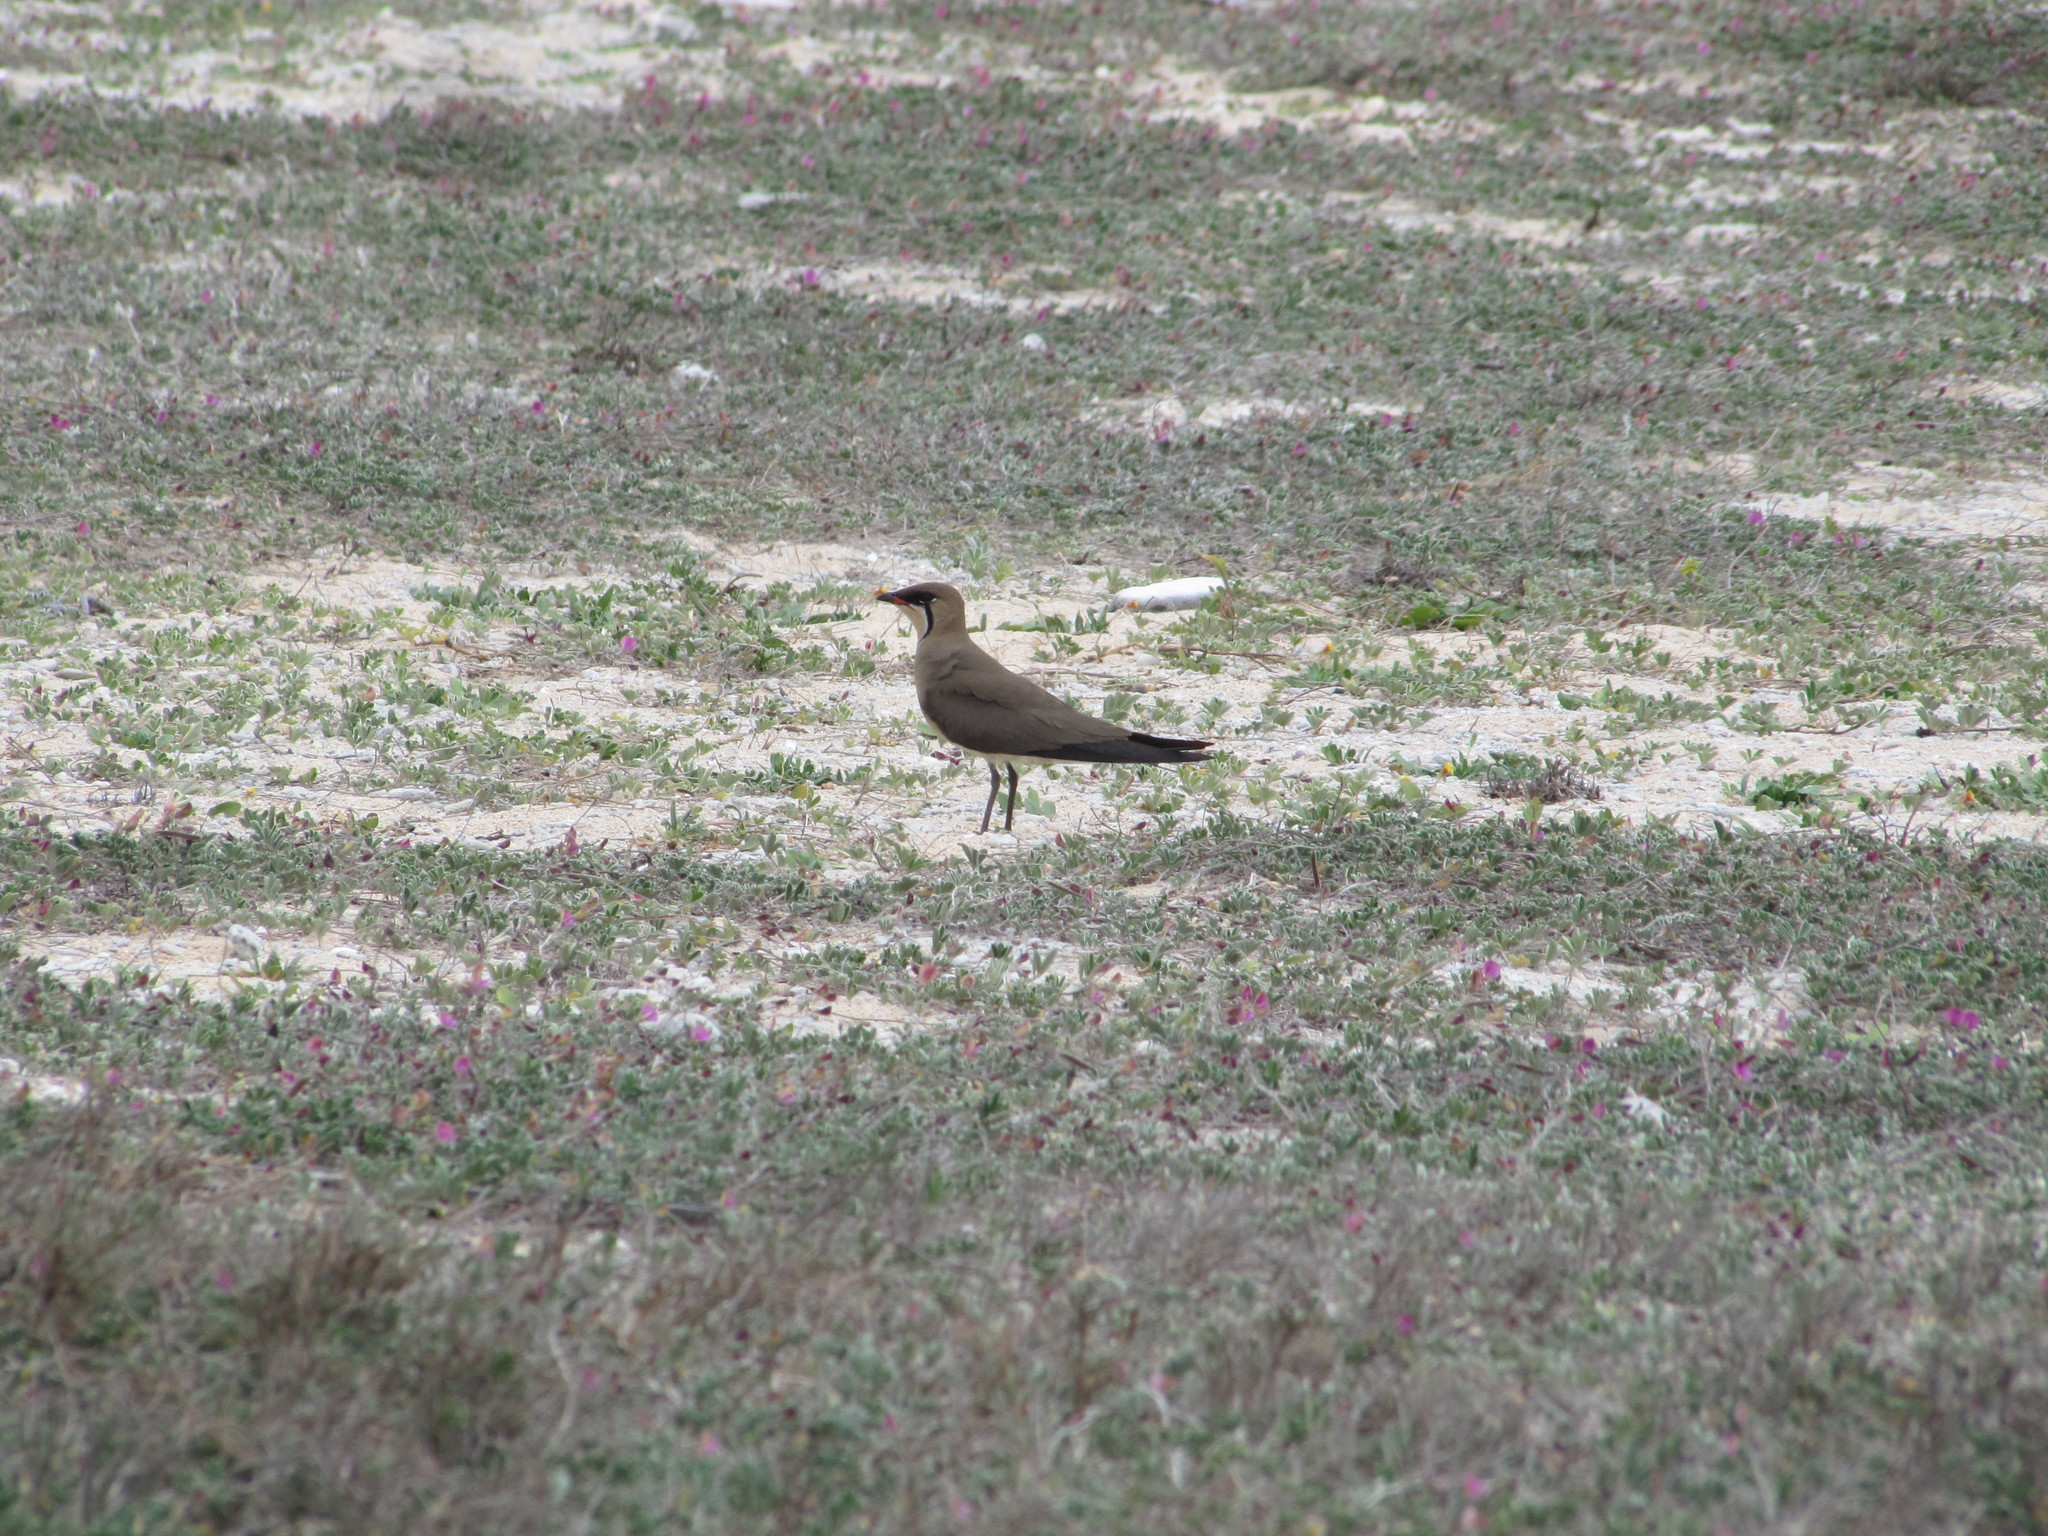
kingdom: Animalia
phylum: Chordata
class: Aves
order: Charadriiformes
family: Glareolidae
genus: Glareola
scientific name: Glareola maldivarum
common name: Oriental pratincole
